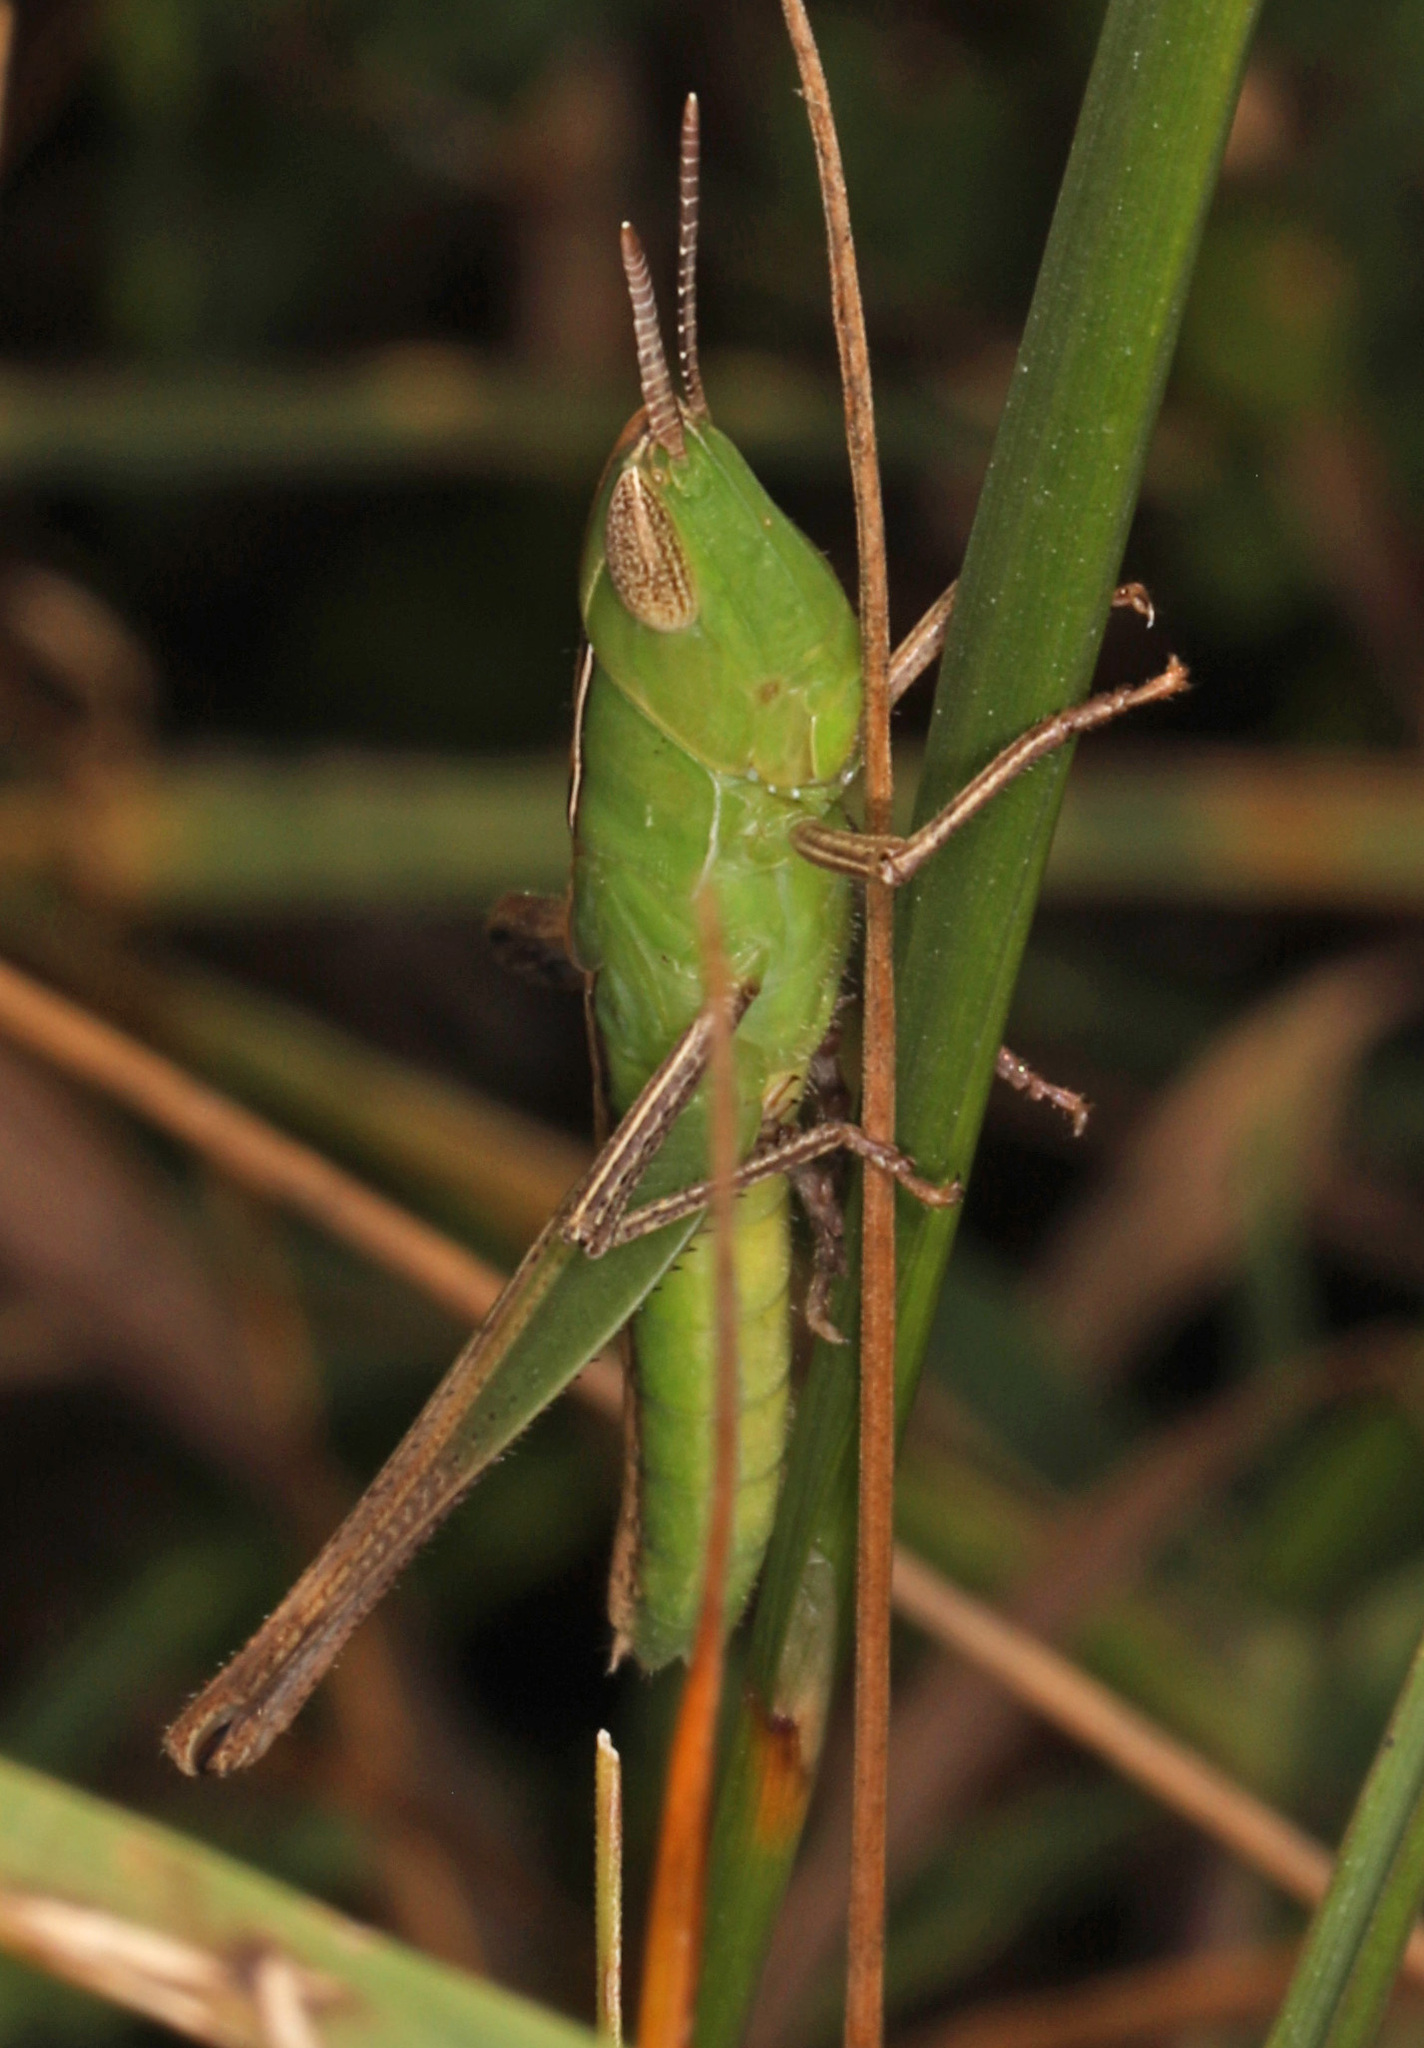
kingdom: Animalia
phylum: Arthropoda
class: Insecta
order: Orthoptera
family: Acrididae
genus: Syrbula
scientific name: Syrbula admirabilis
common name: Handsome grasshopper
